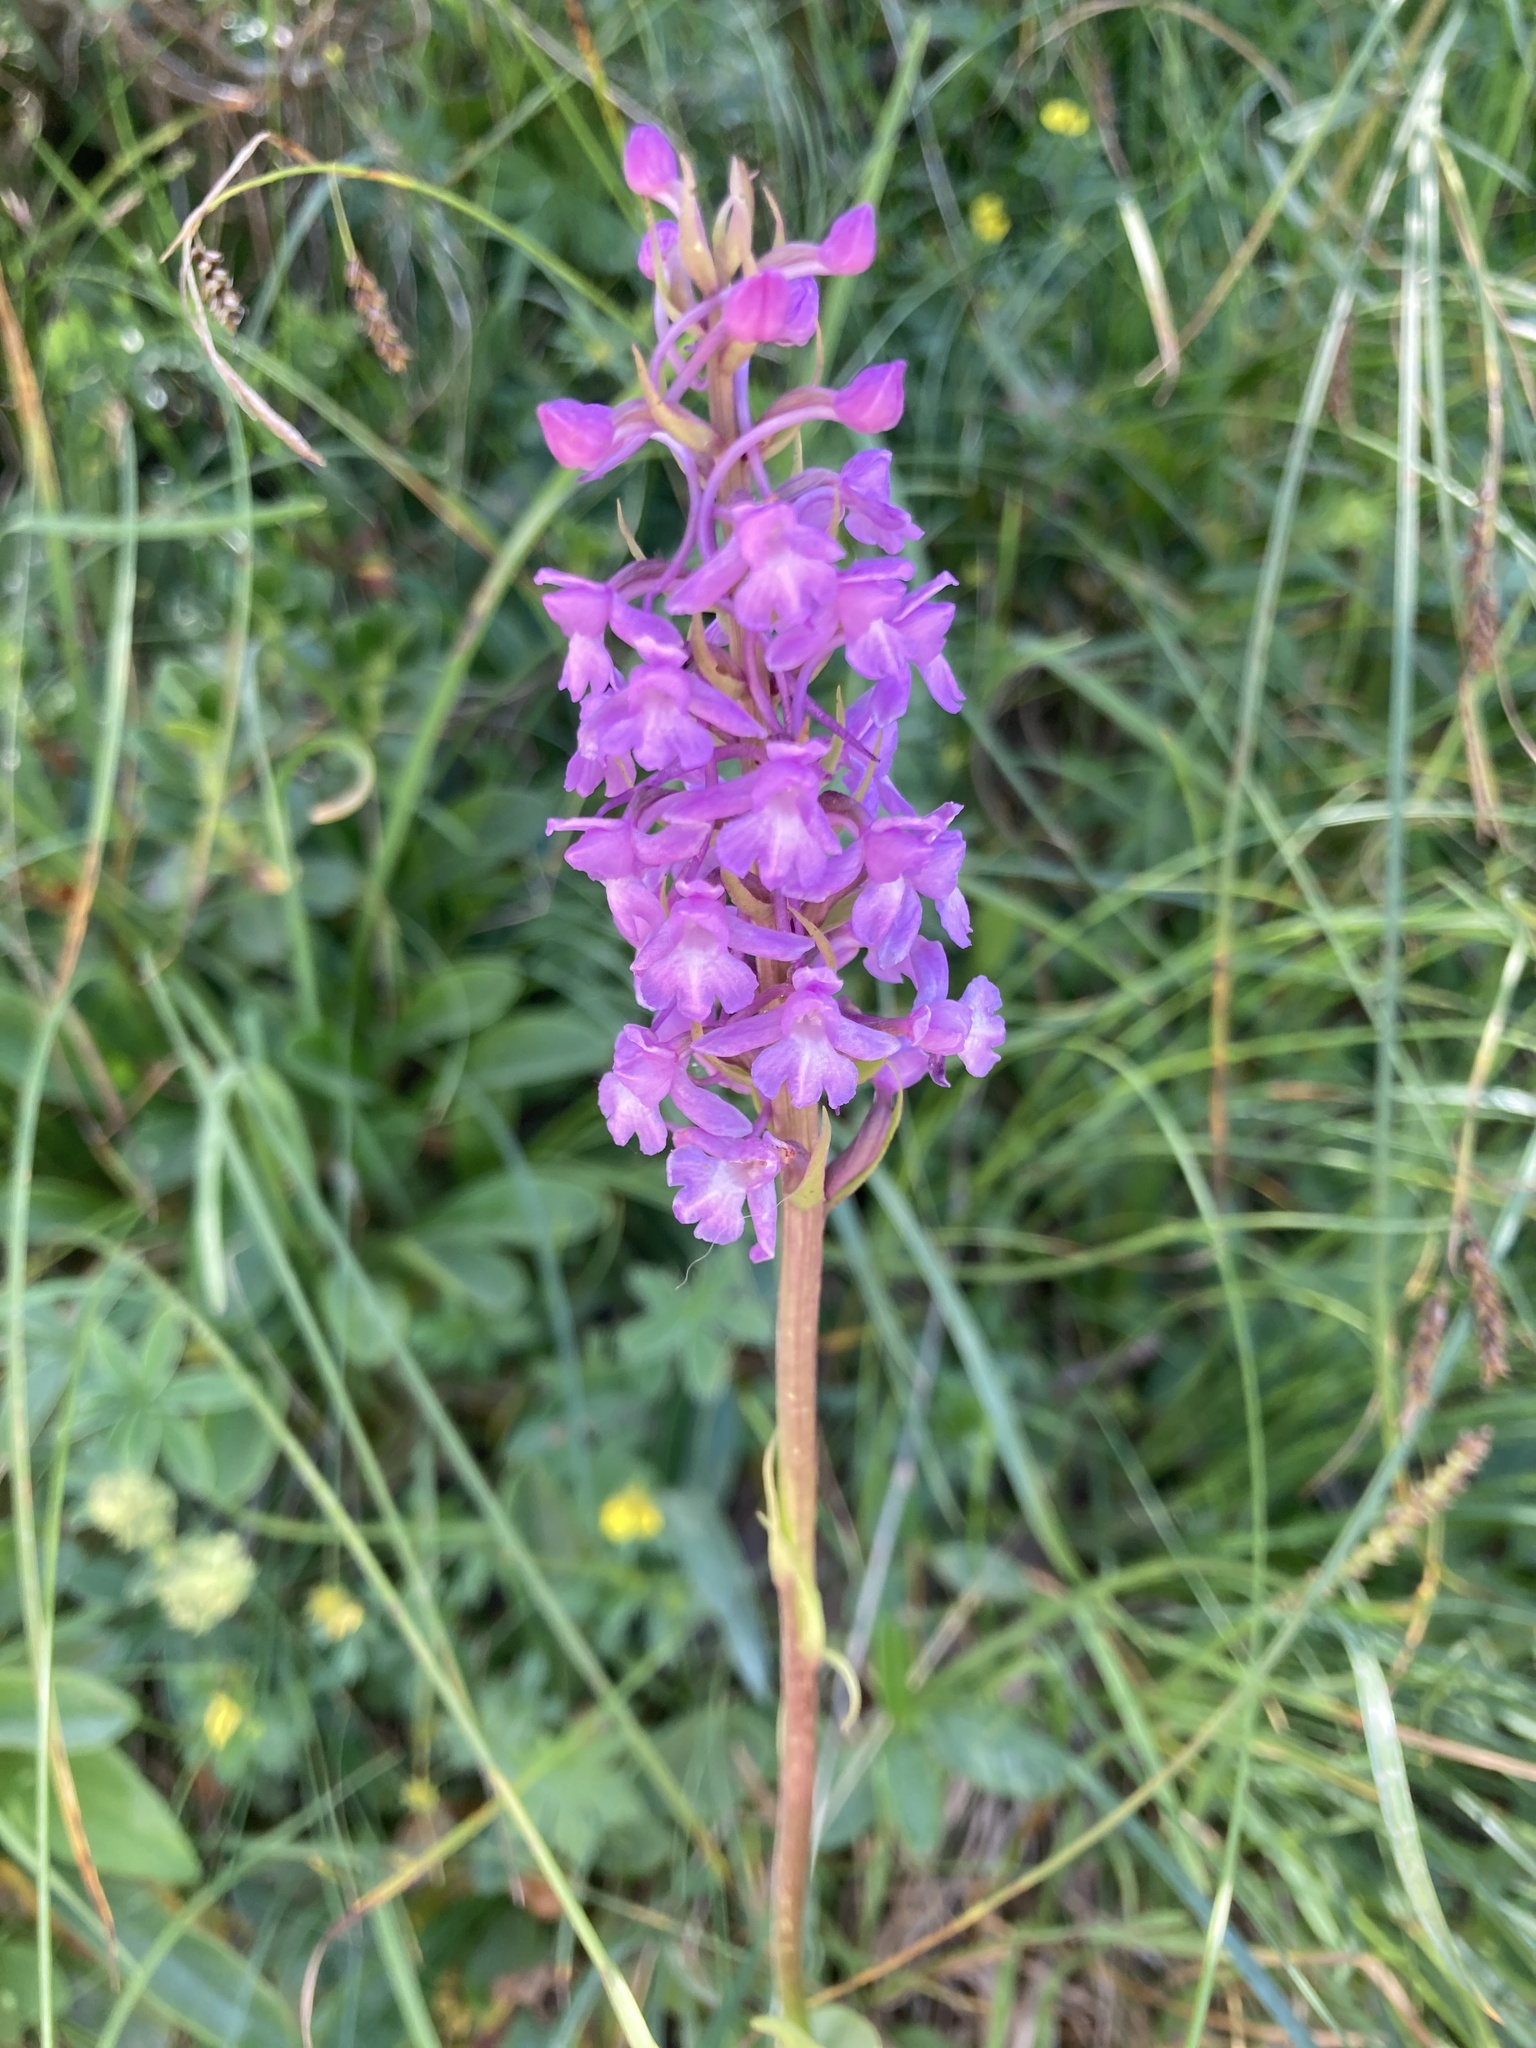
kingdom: Plantae
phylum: Tracheophyta
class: Liliopsida
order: Asparagales
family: Orchidaceae
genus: Gymnadenia
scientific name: Gymnadenia conopsea
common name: Fragrant orchid
